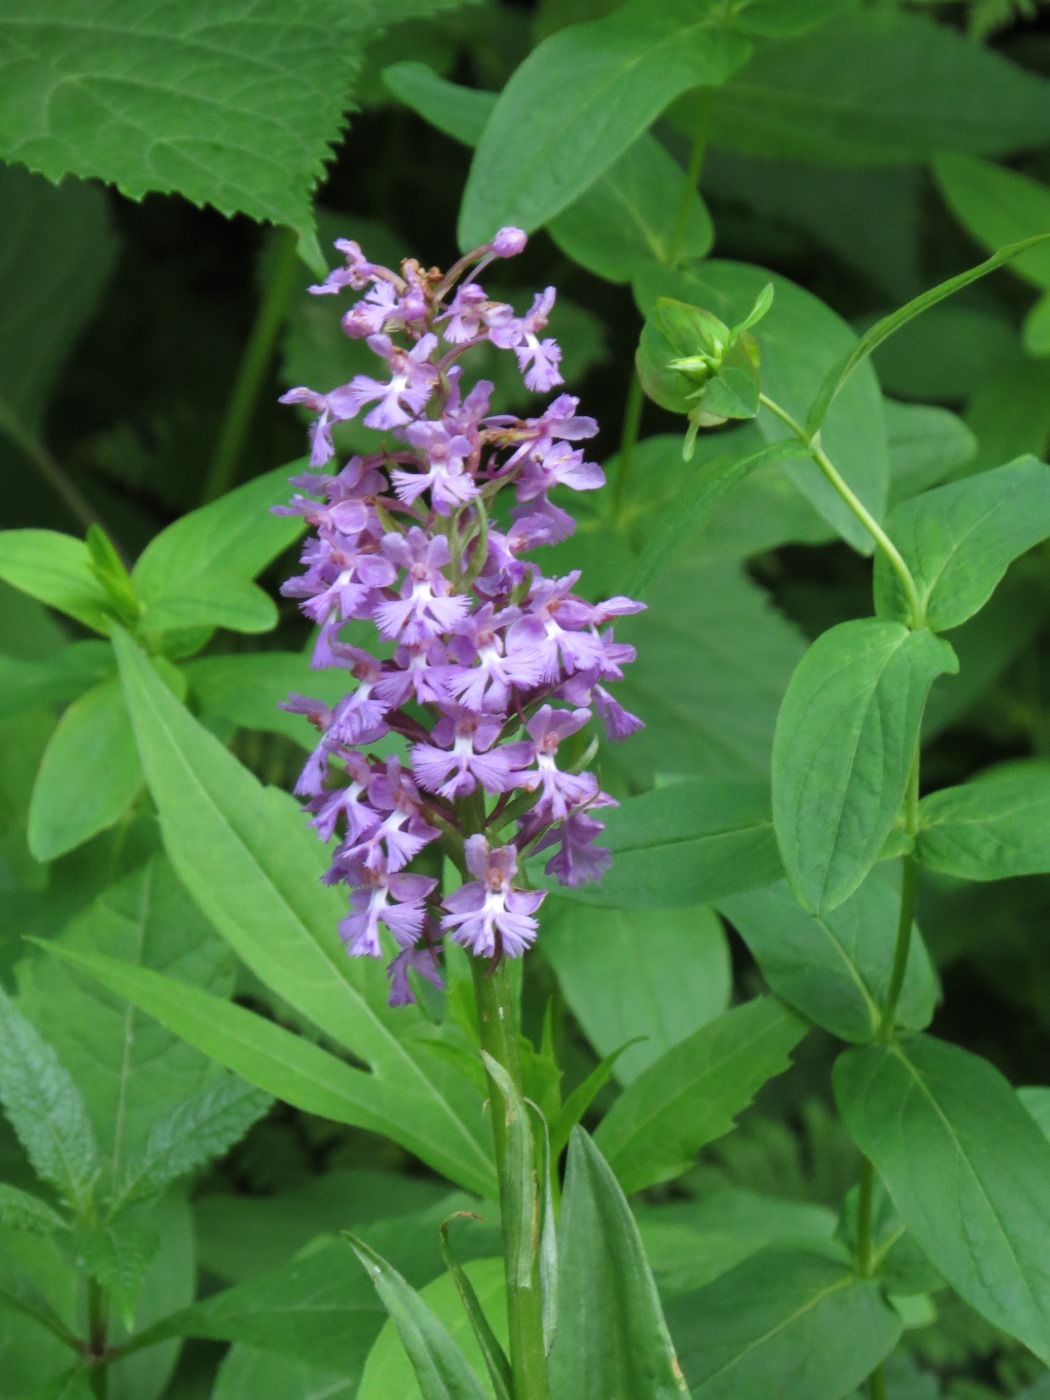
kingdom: Plantae
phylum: Tracheophyta
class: Liliopsida
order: Asparagales
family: Orchidaceae
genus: Platanthera
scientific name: Platanthera psycodes
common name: Lesser purple fringed orchid
